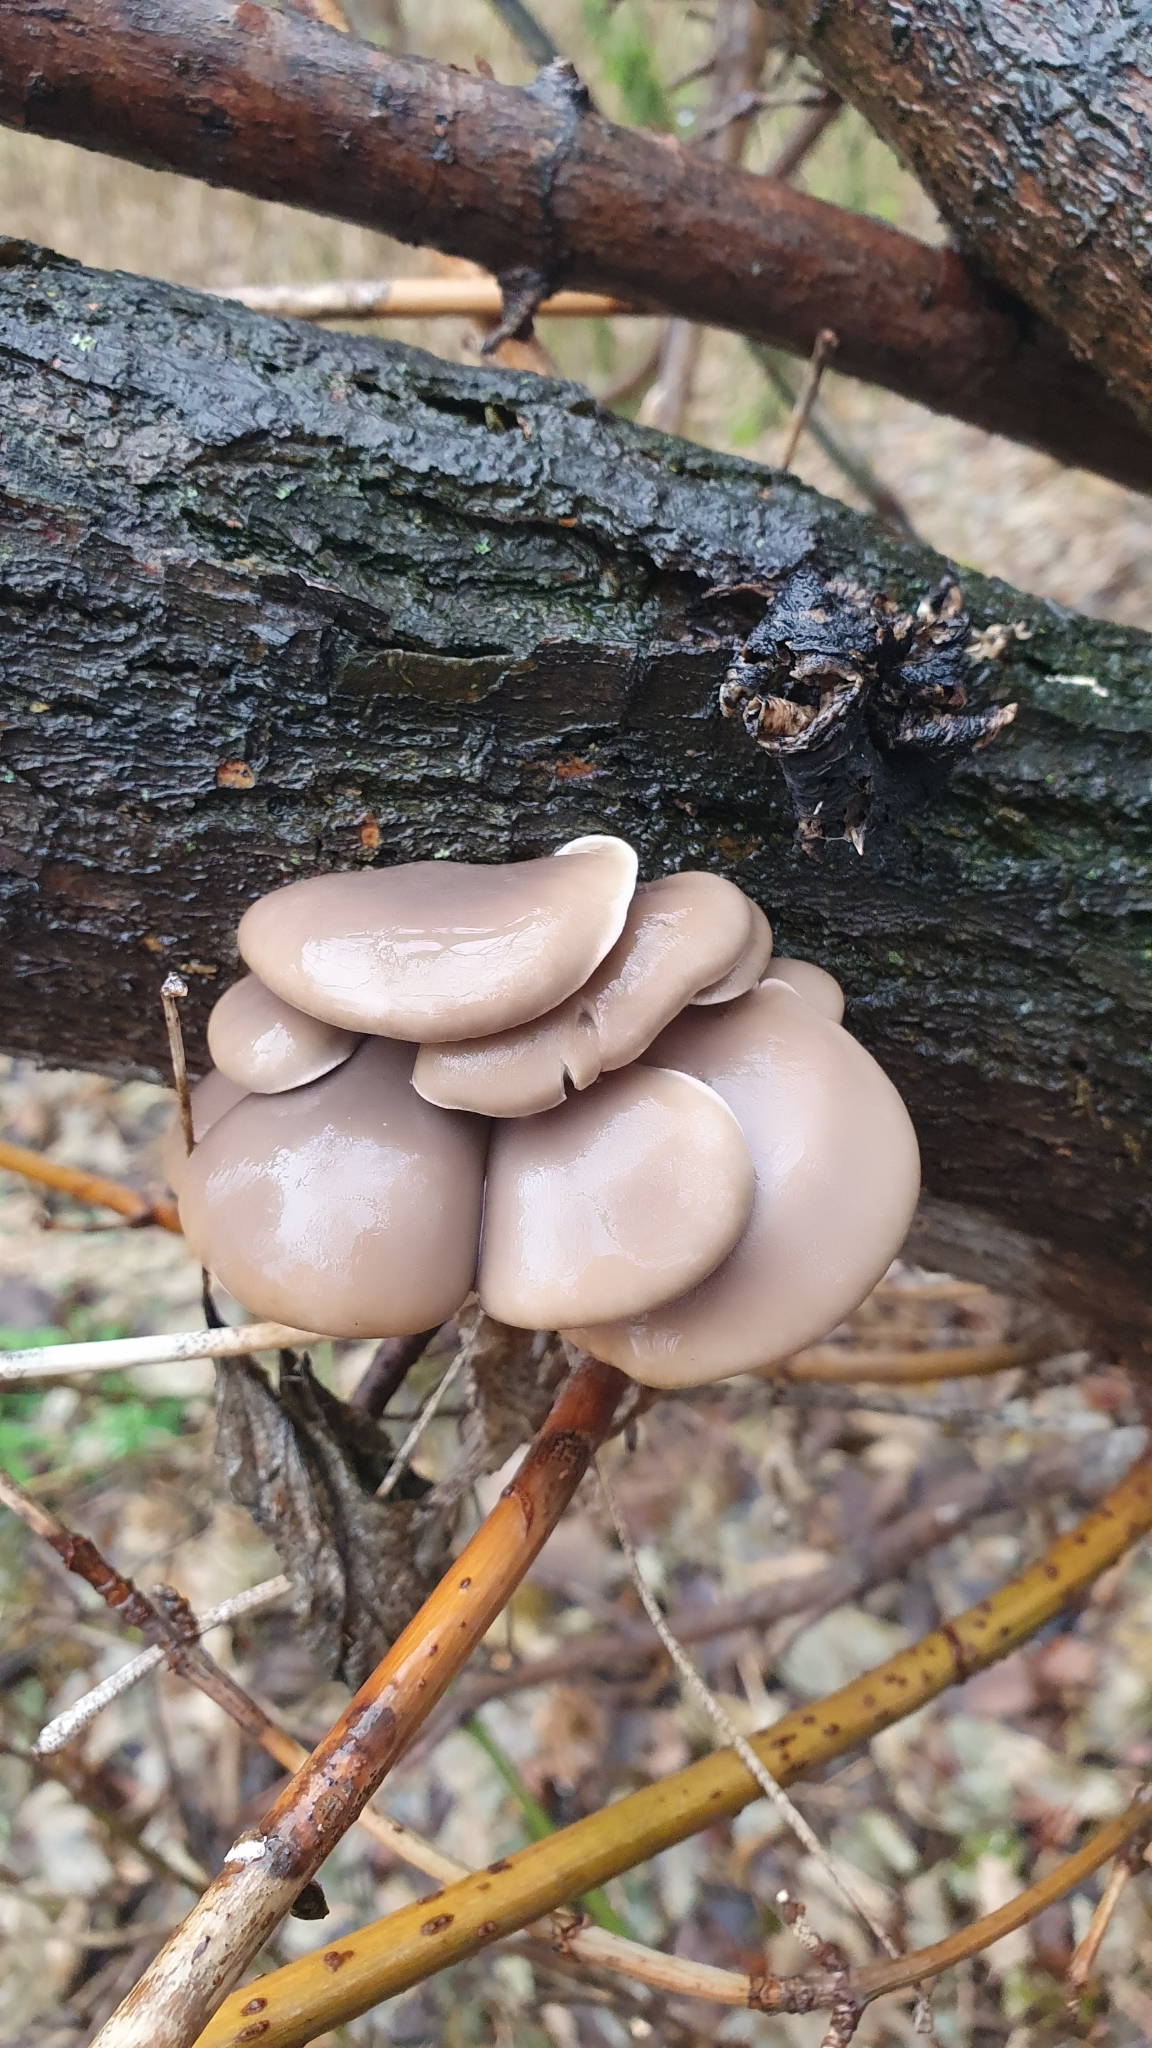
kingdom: Fungi
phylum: Basidiomycota
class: Agaricomycetes
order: Agaricales
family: Pleurotaceae
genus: Pleurotus
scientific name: Pleurotus ostreatus
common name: Oyster mushroom
